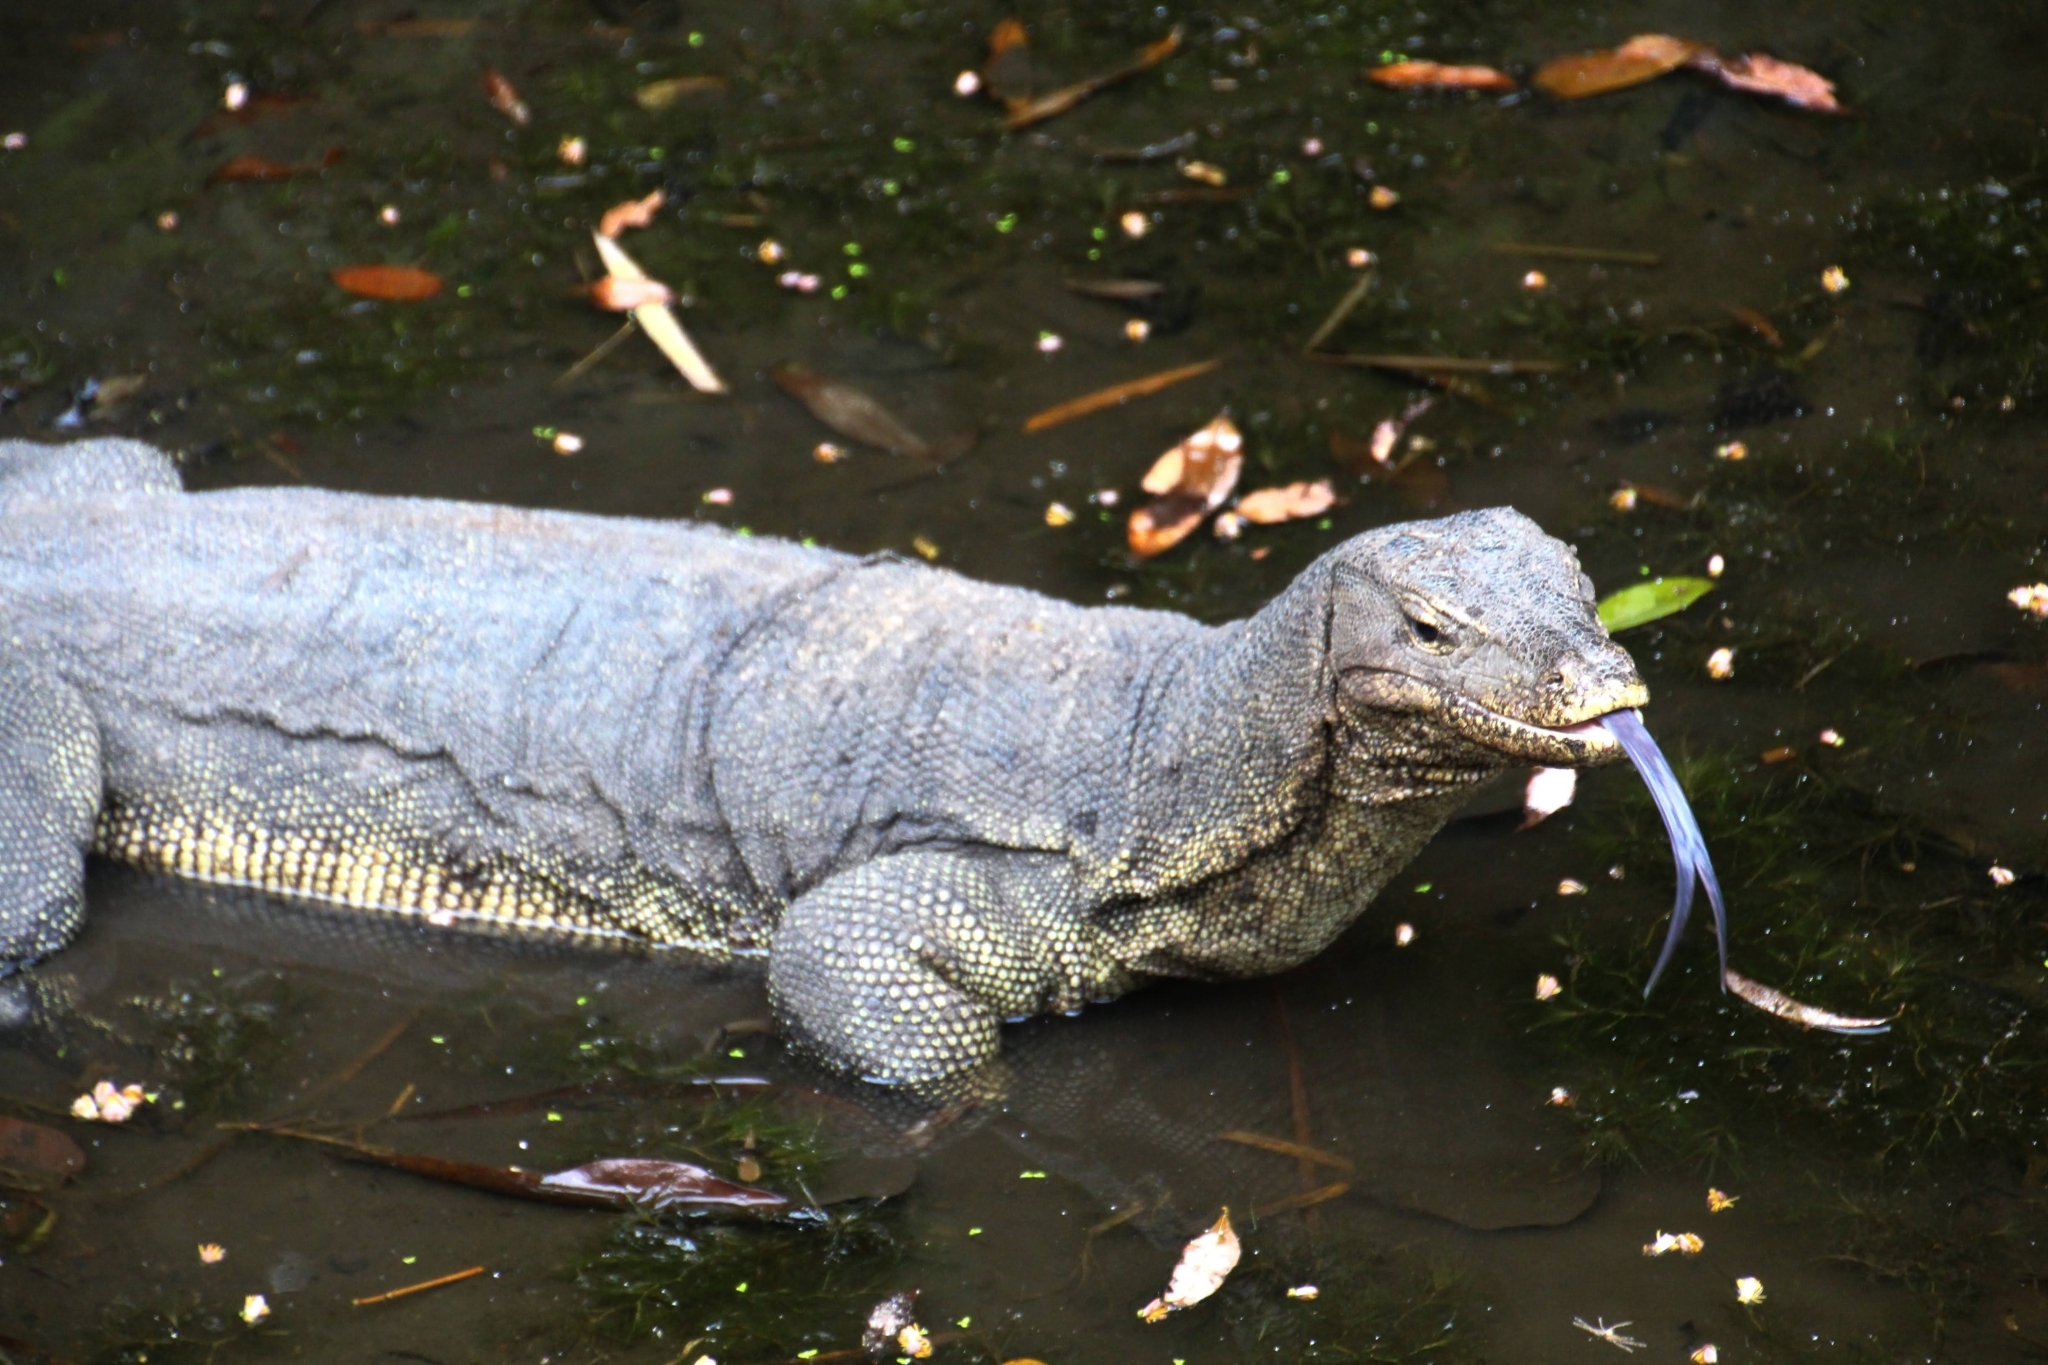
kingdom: Animalia
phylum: Chordata
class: Squamata
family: Varanidae
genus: Varanus
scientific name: Varanus salvator
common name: Common water monitor
